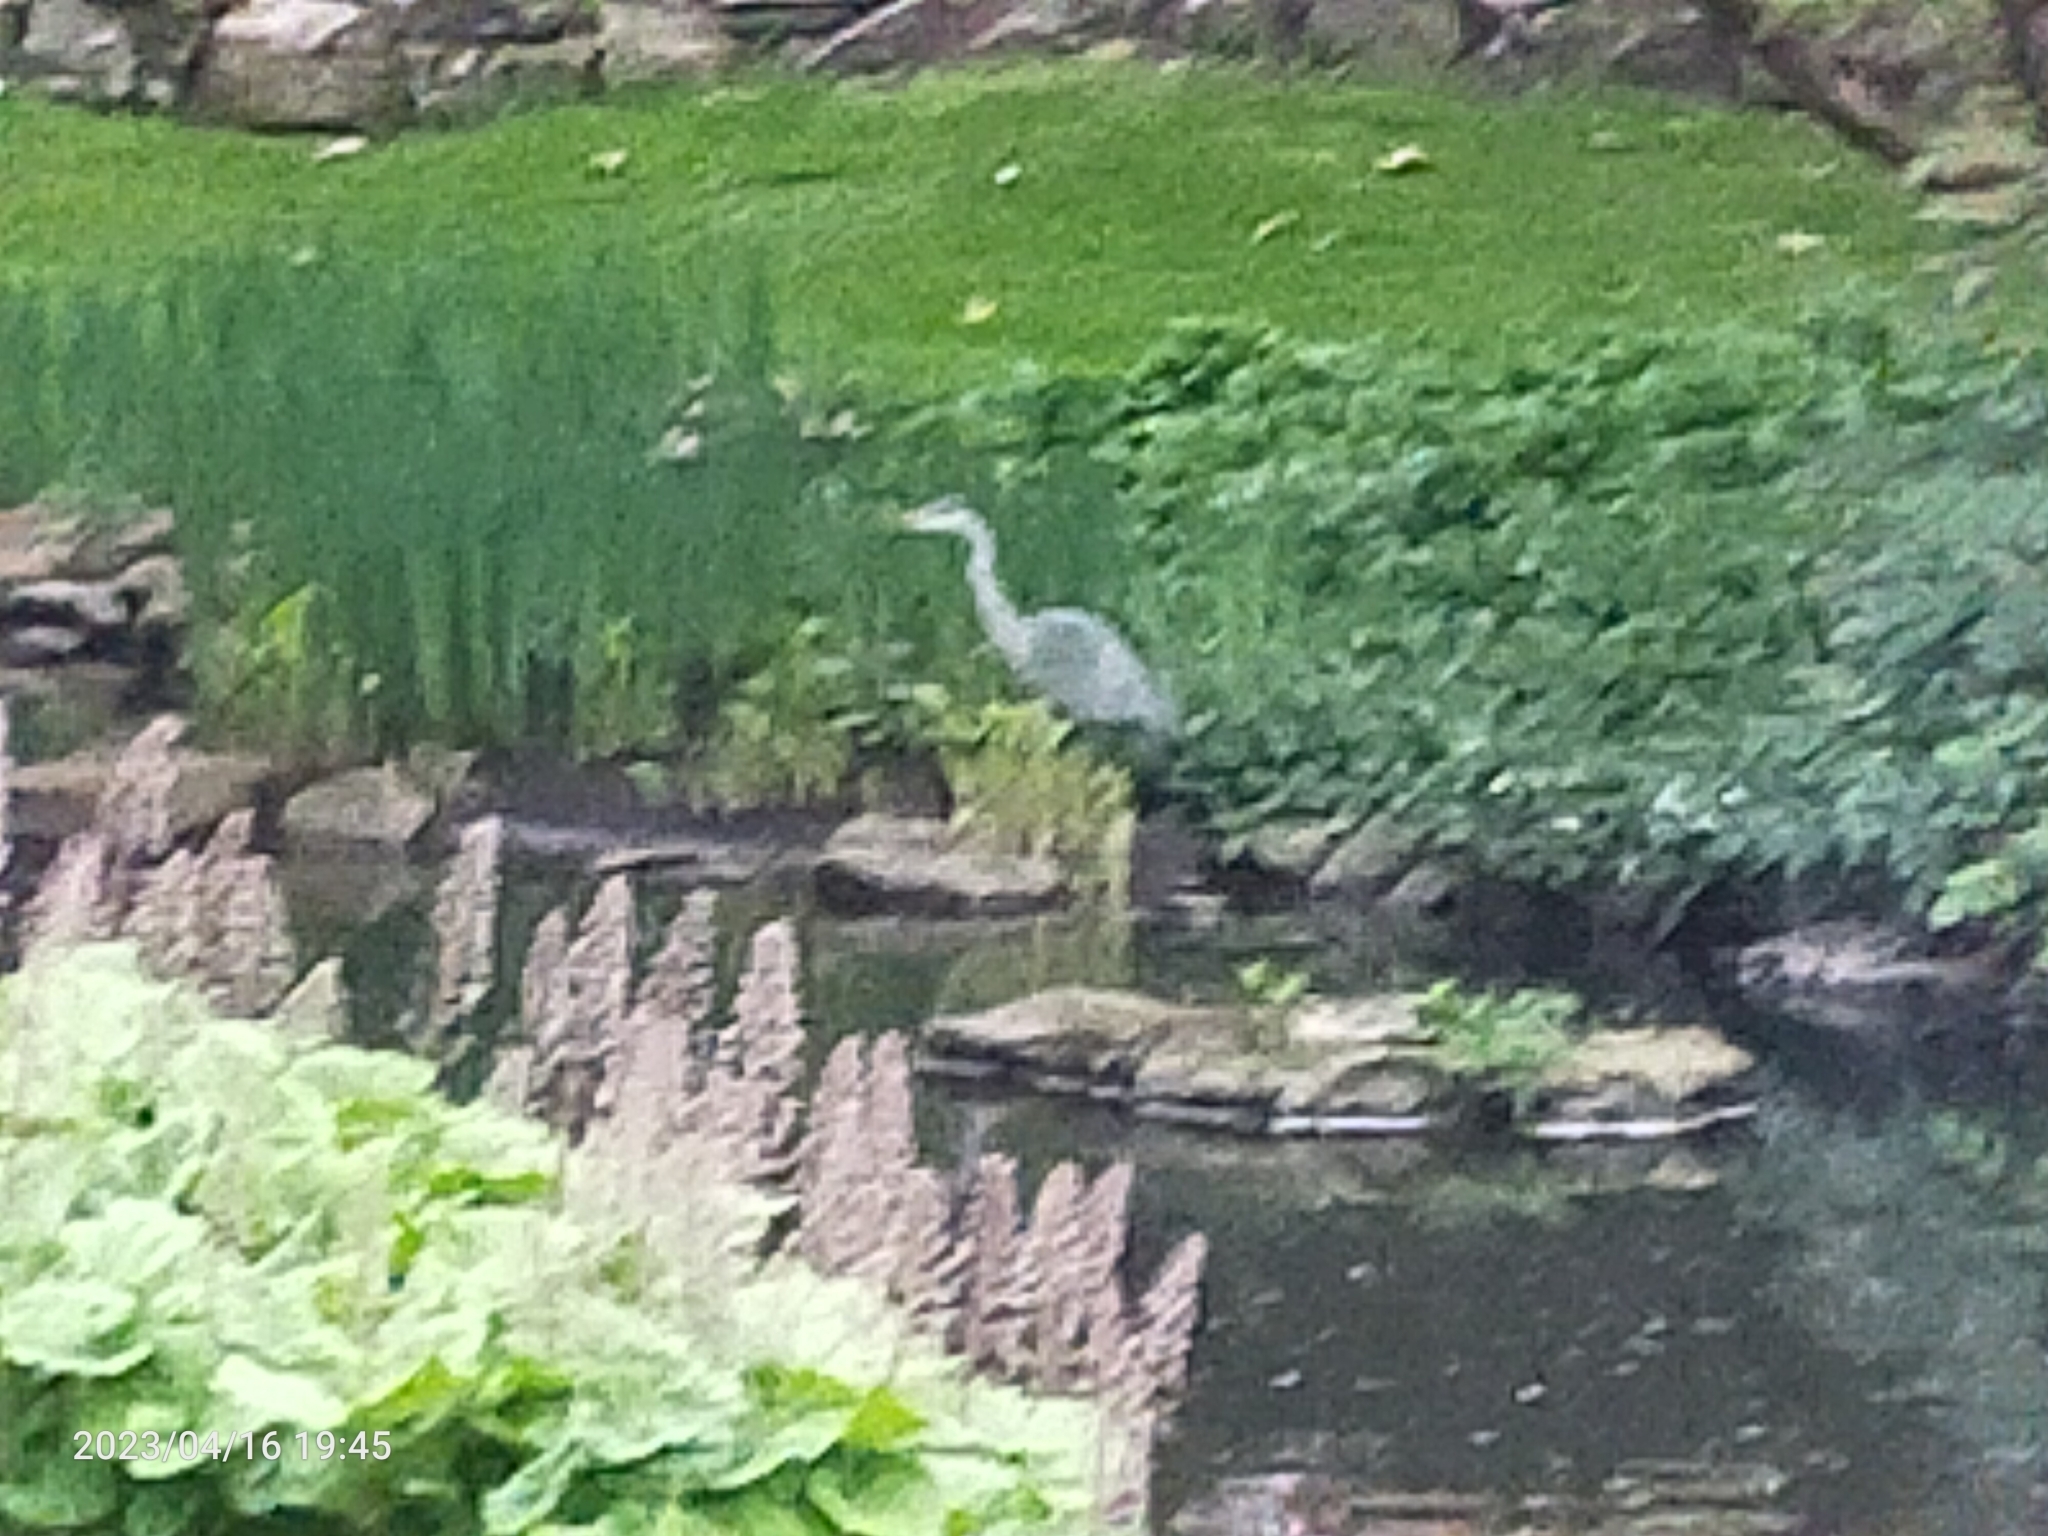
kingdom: Animalia
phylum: Chordata
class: Aves
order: Pelecaniformes
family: Ardeidae
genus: Ardea
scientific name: Ardea cinerea
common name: Grey heron
